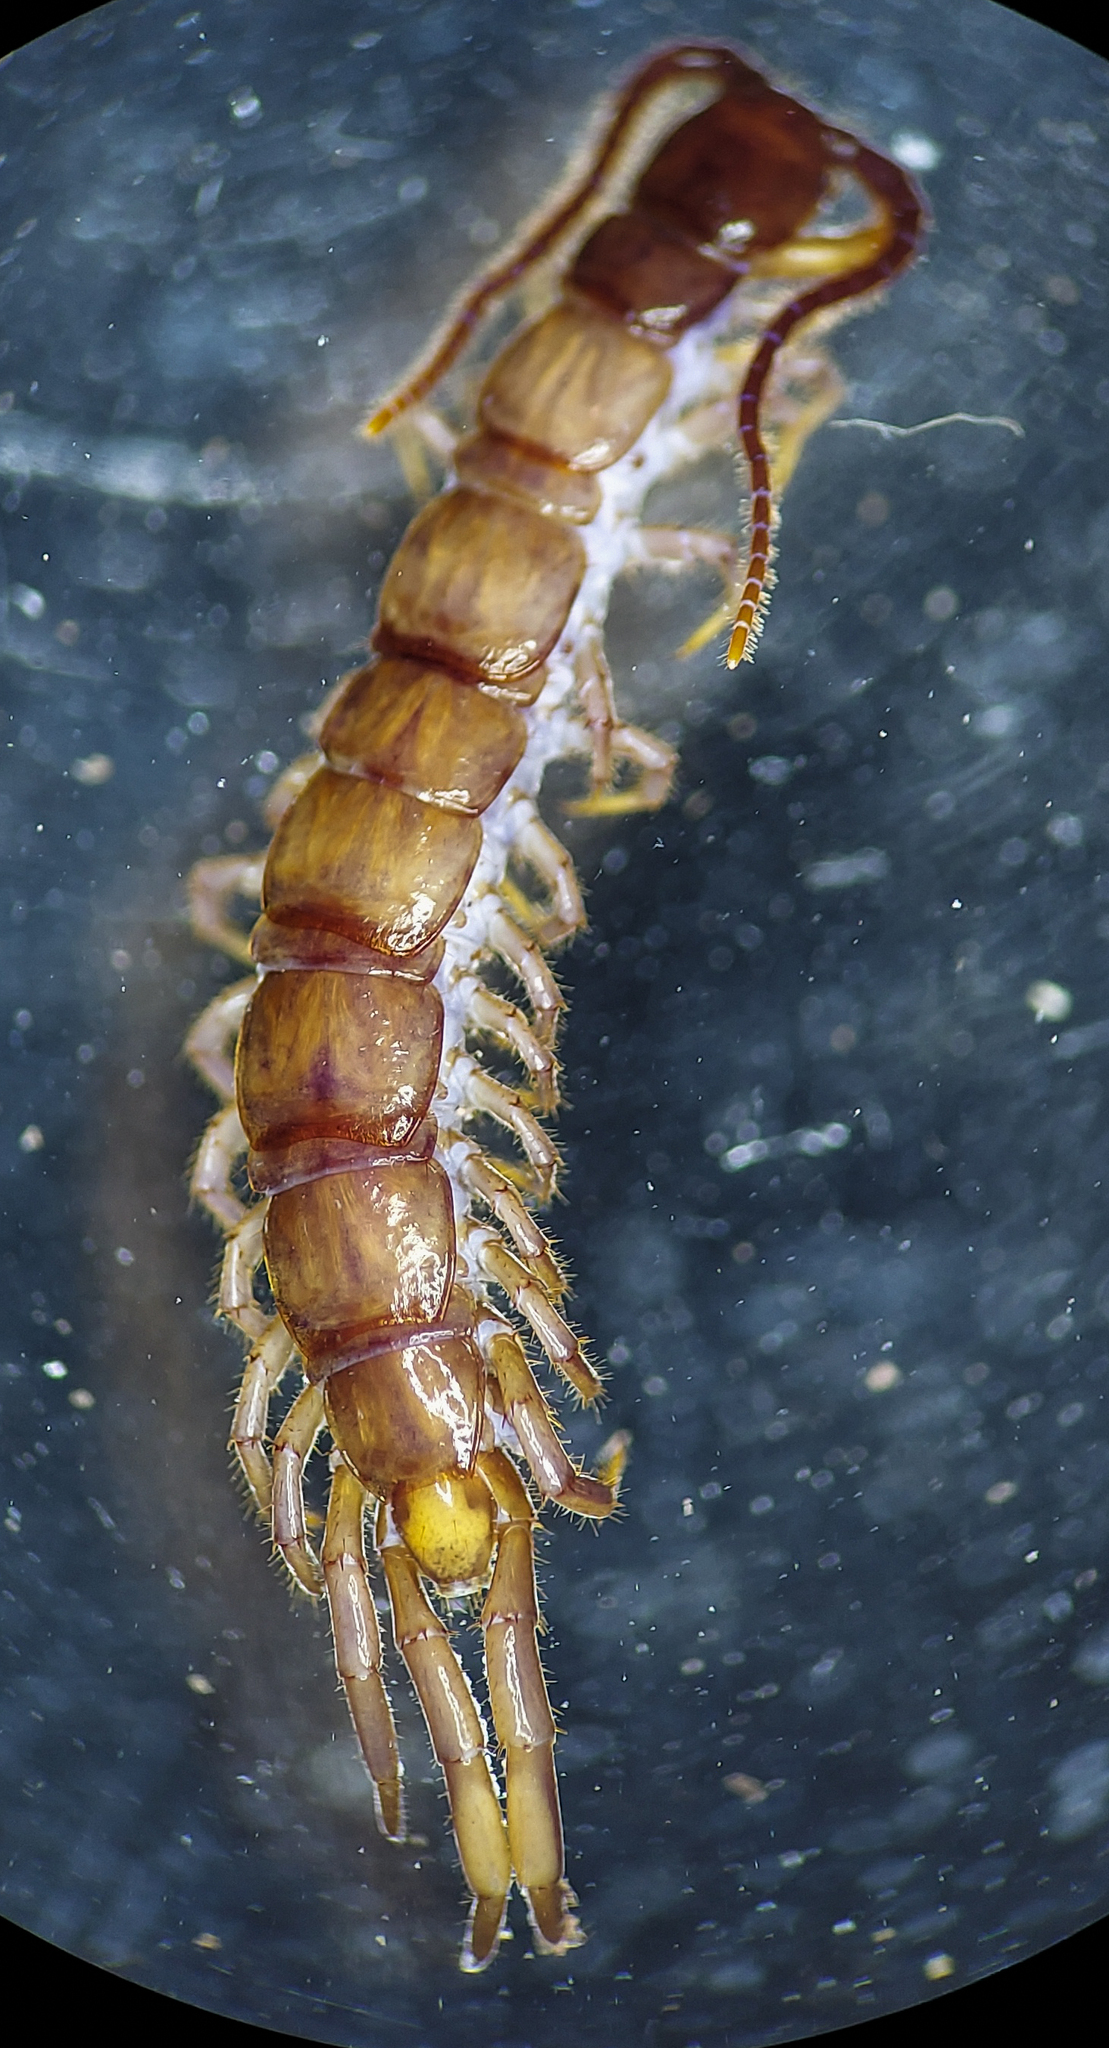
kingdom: Animalia
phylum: Arthropoda
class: Chilopoda
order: Lithobiomorpha
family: Lithobiidae
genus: Nadabius
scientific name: Nadabius pullus
